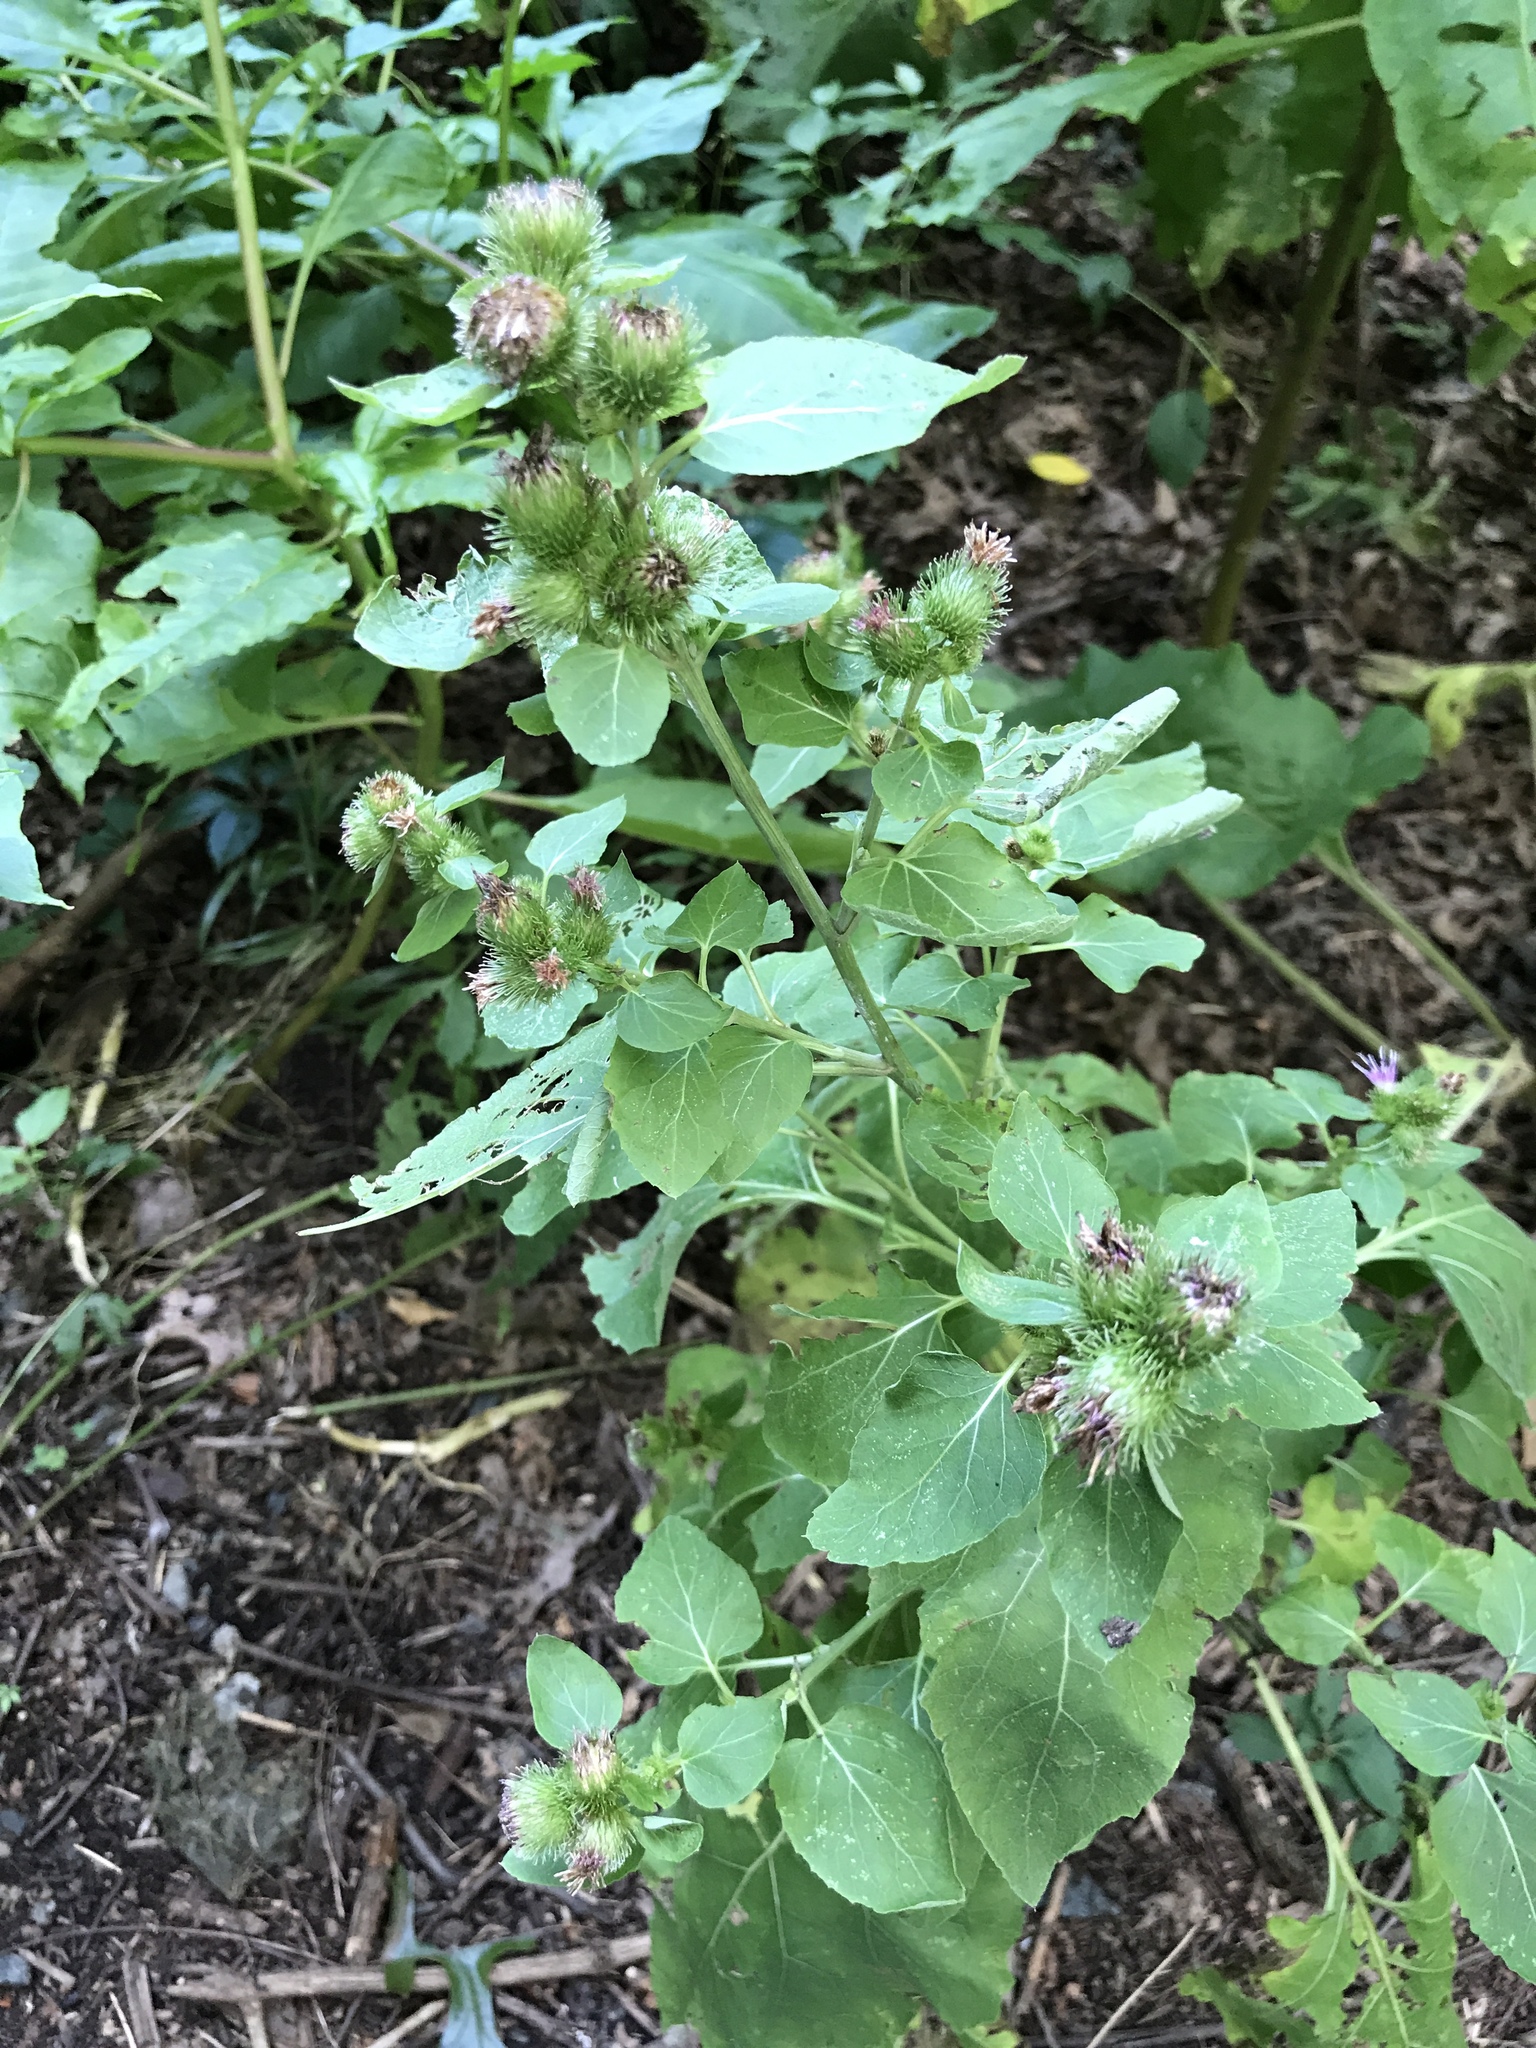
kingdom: Plantae
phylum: Tracheophyta
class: Magnoliopsida
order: Asterales
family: Asteraceae
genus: Arctium
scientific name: Arctium minus
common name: Lesser burdock
